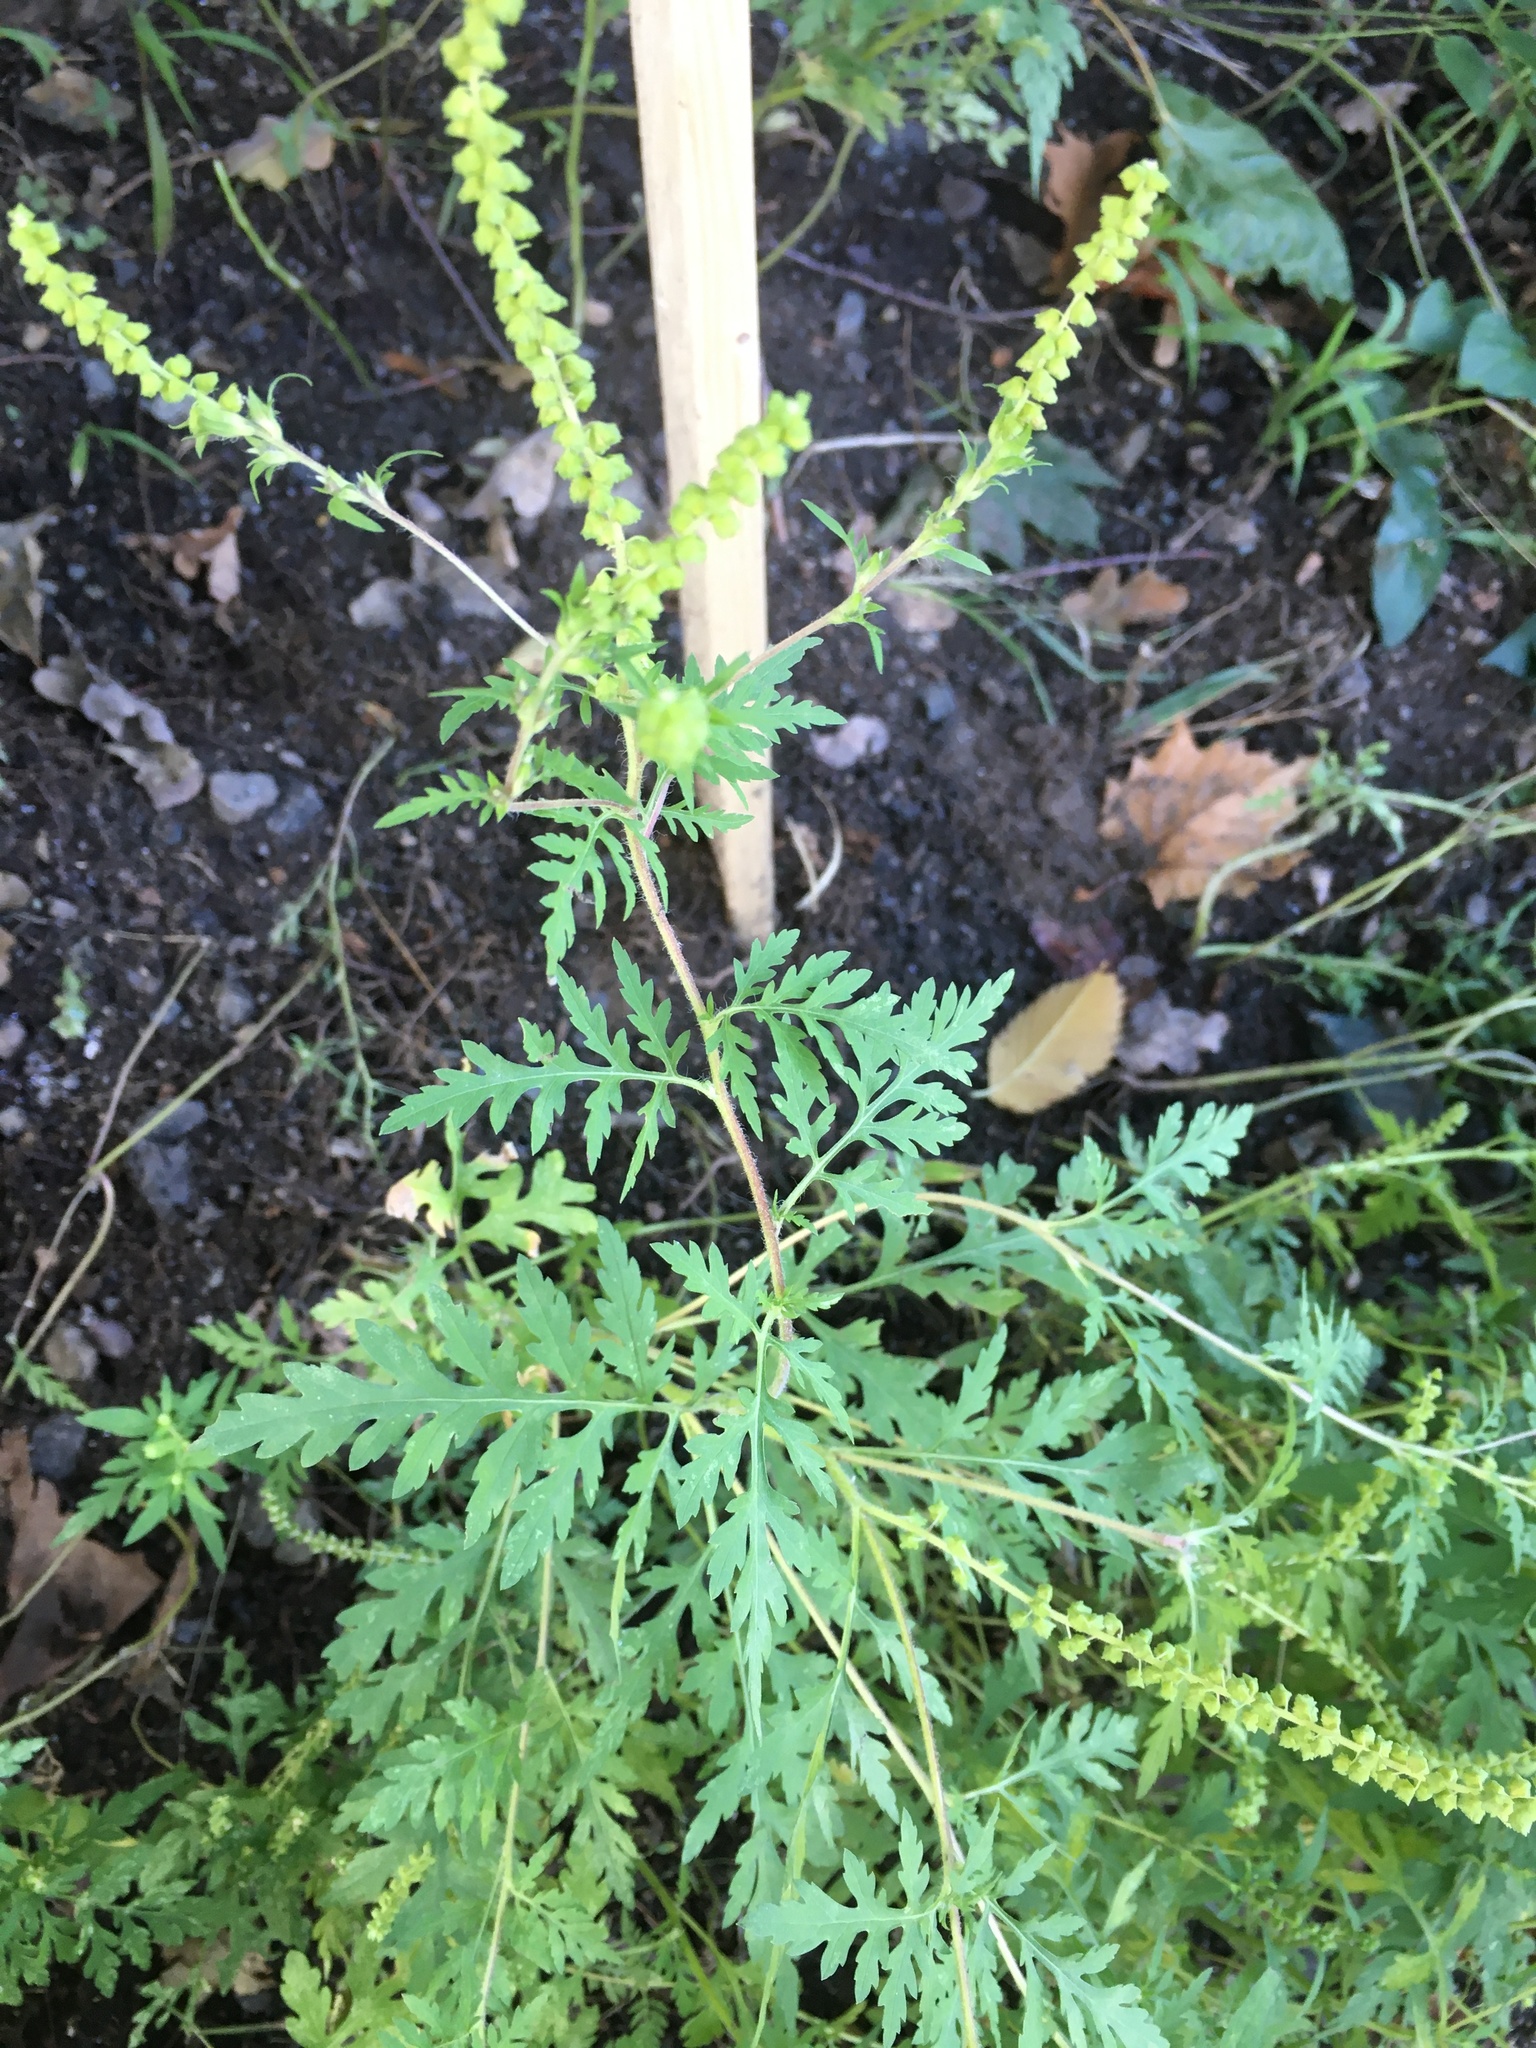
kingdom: Plantae
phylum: Tracheophyta
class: Magnoliopsida
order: Asterales
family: Asteraceae
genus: Ambrosia
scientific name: Ambrosia artemisiifolia
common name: Annual ragweed
